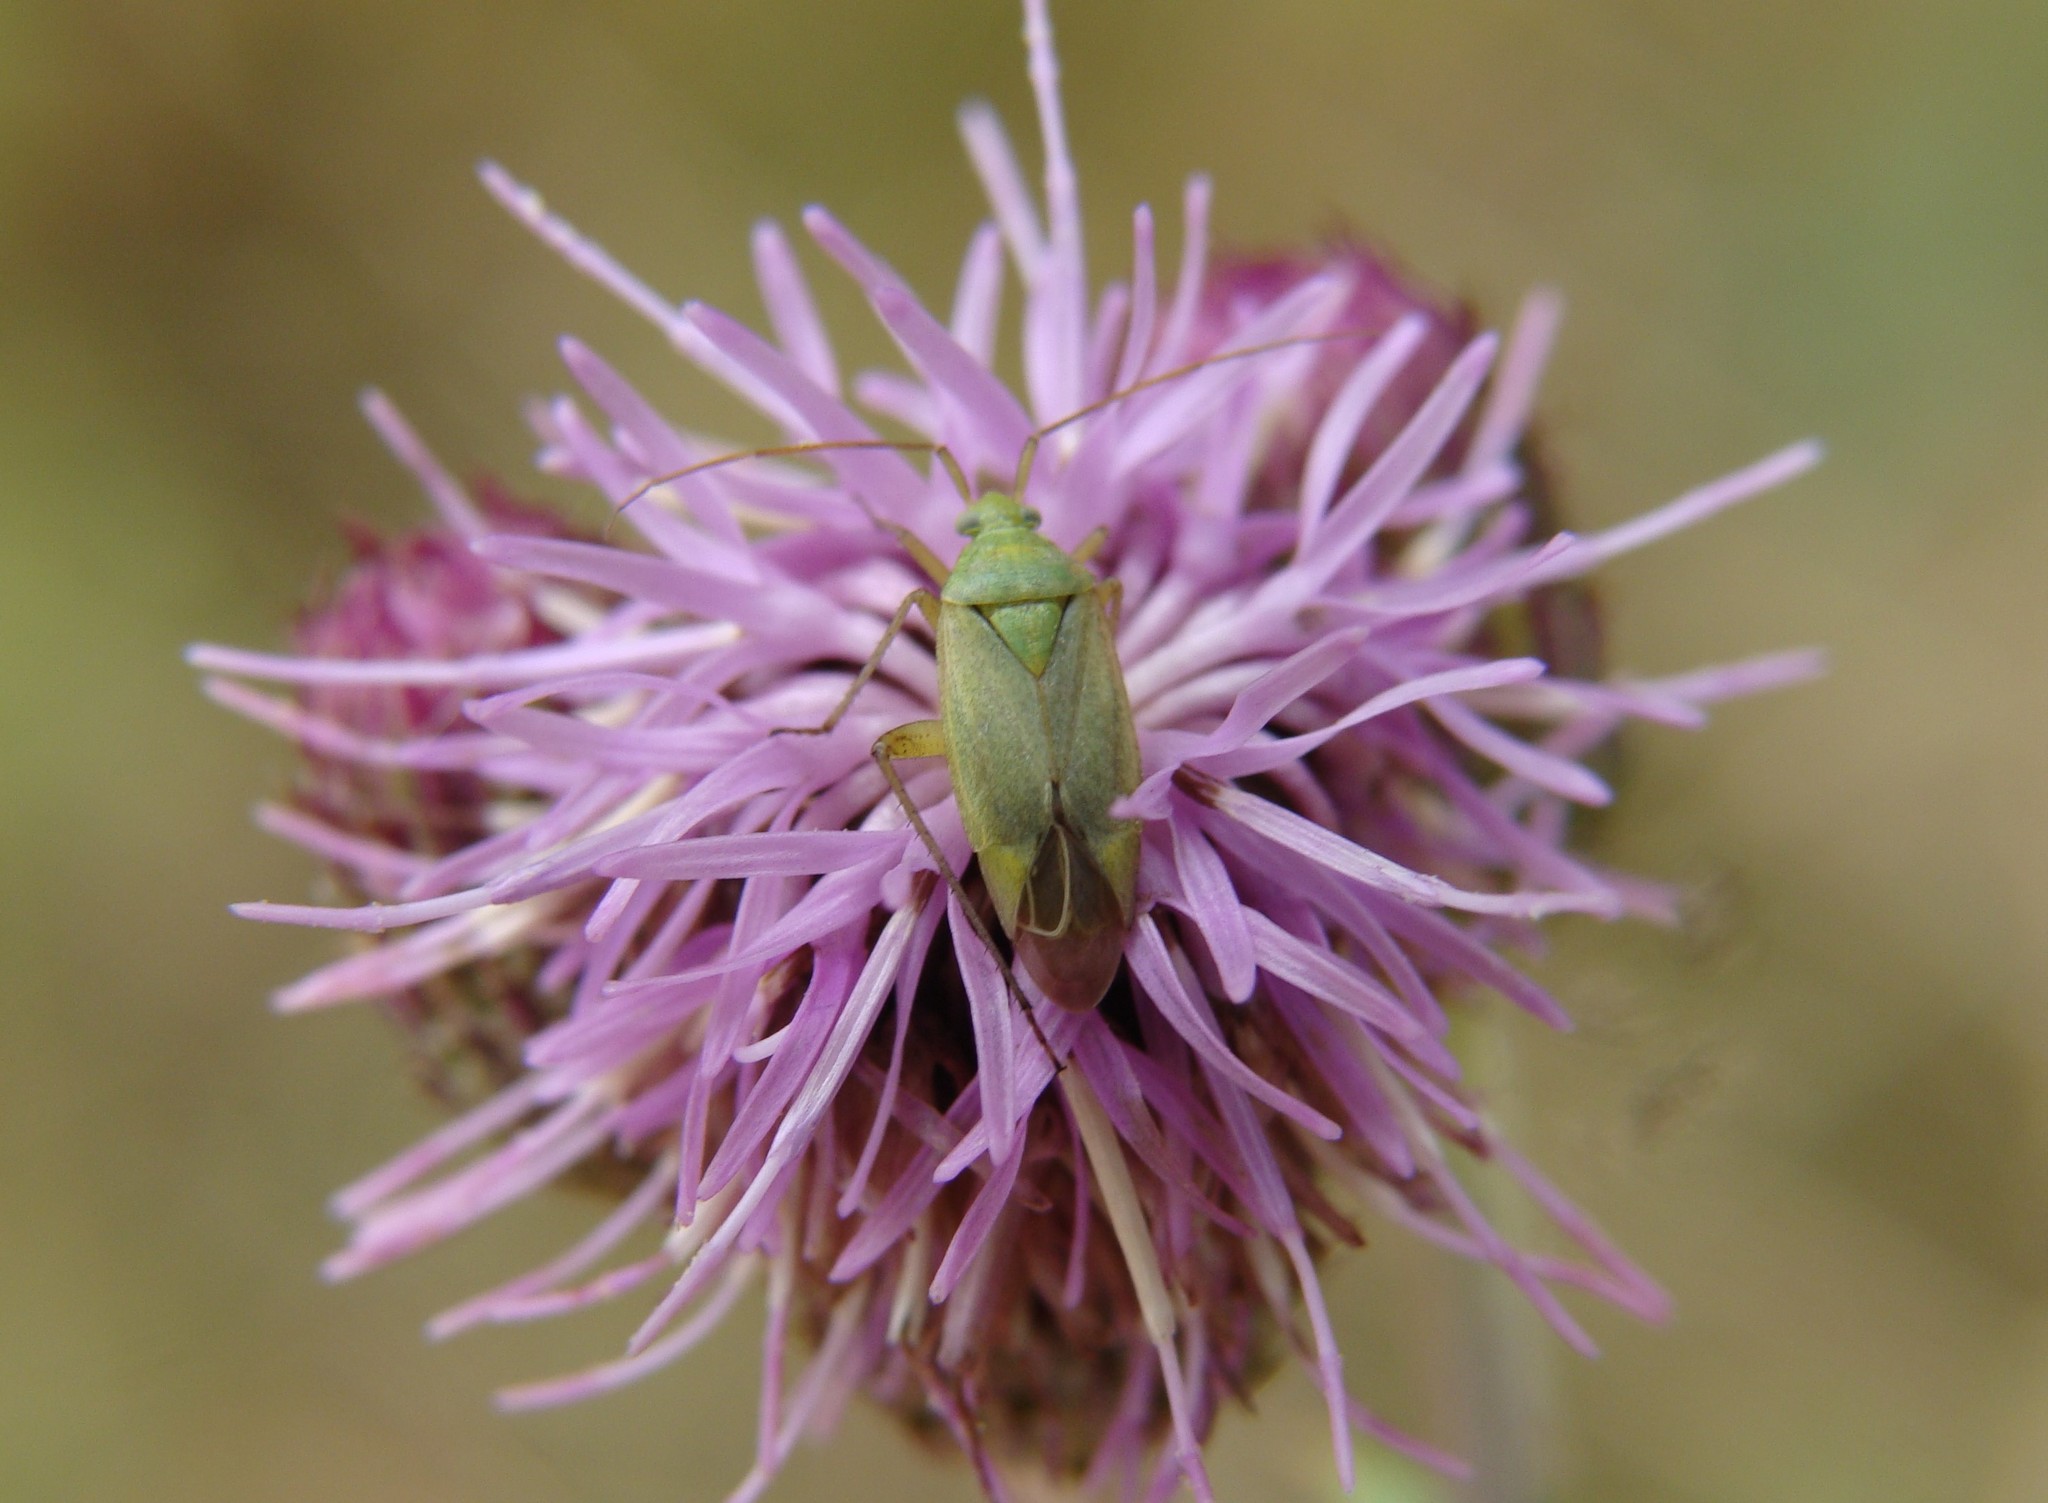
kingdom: Animalia
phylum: Arthropoda
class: Insecta
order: Hemiptera
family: Miridae
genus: Closterotomus
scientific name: Closterotomus norvegicus
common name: Plant bug
